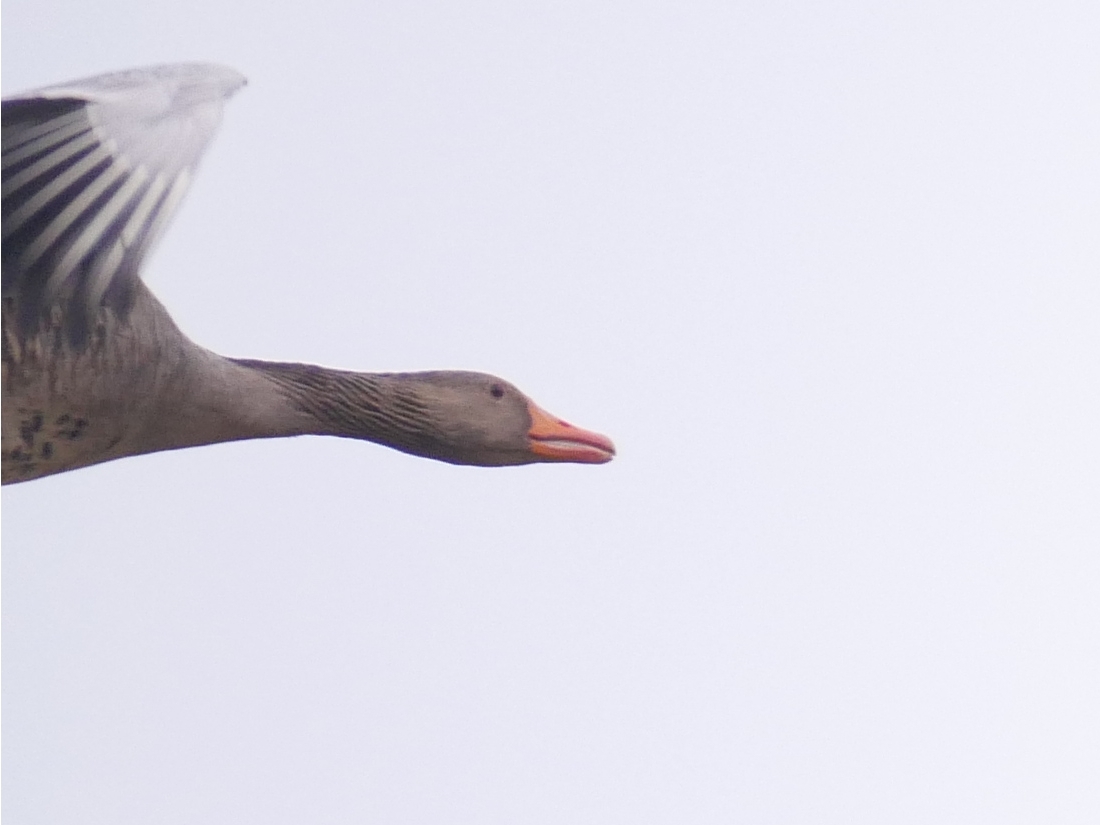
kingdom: Animalia
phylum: Chordata
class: Aves
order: Anseriformes
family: Anatidae
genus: Anser
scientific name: Anser anser
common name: Greylag goose
